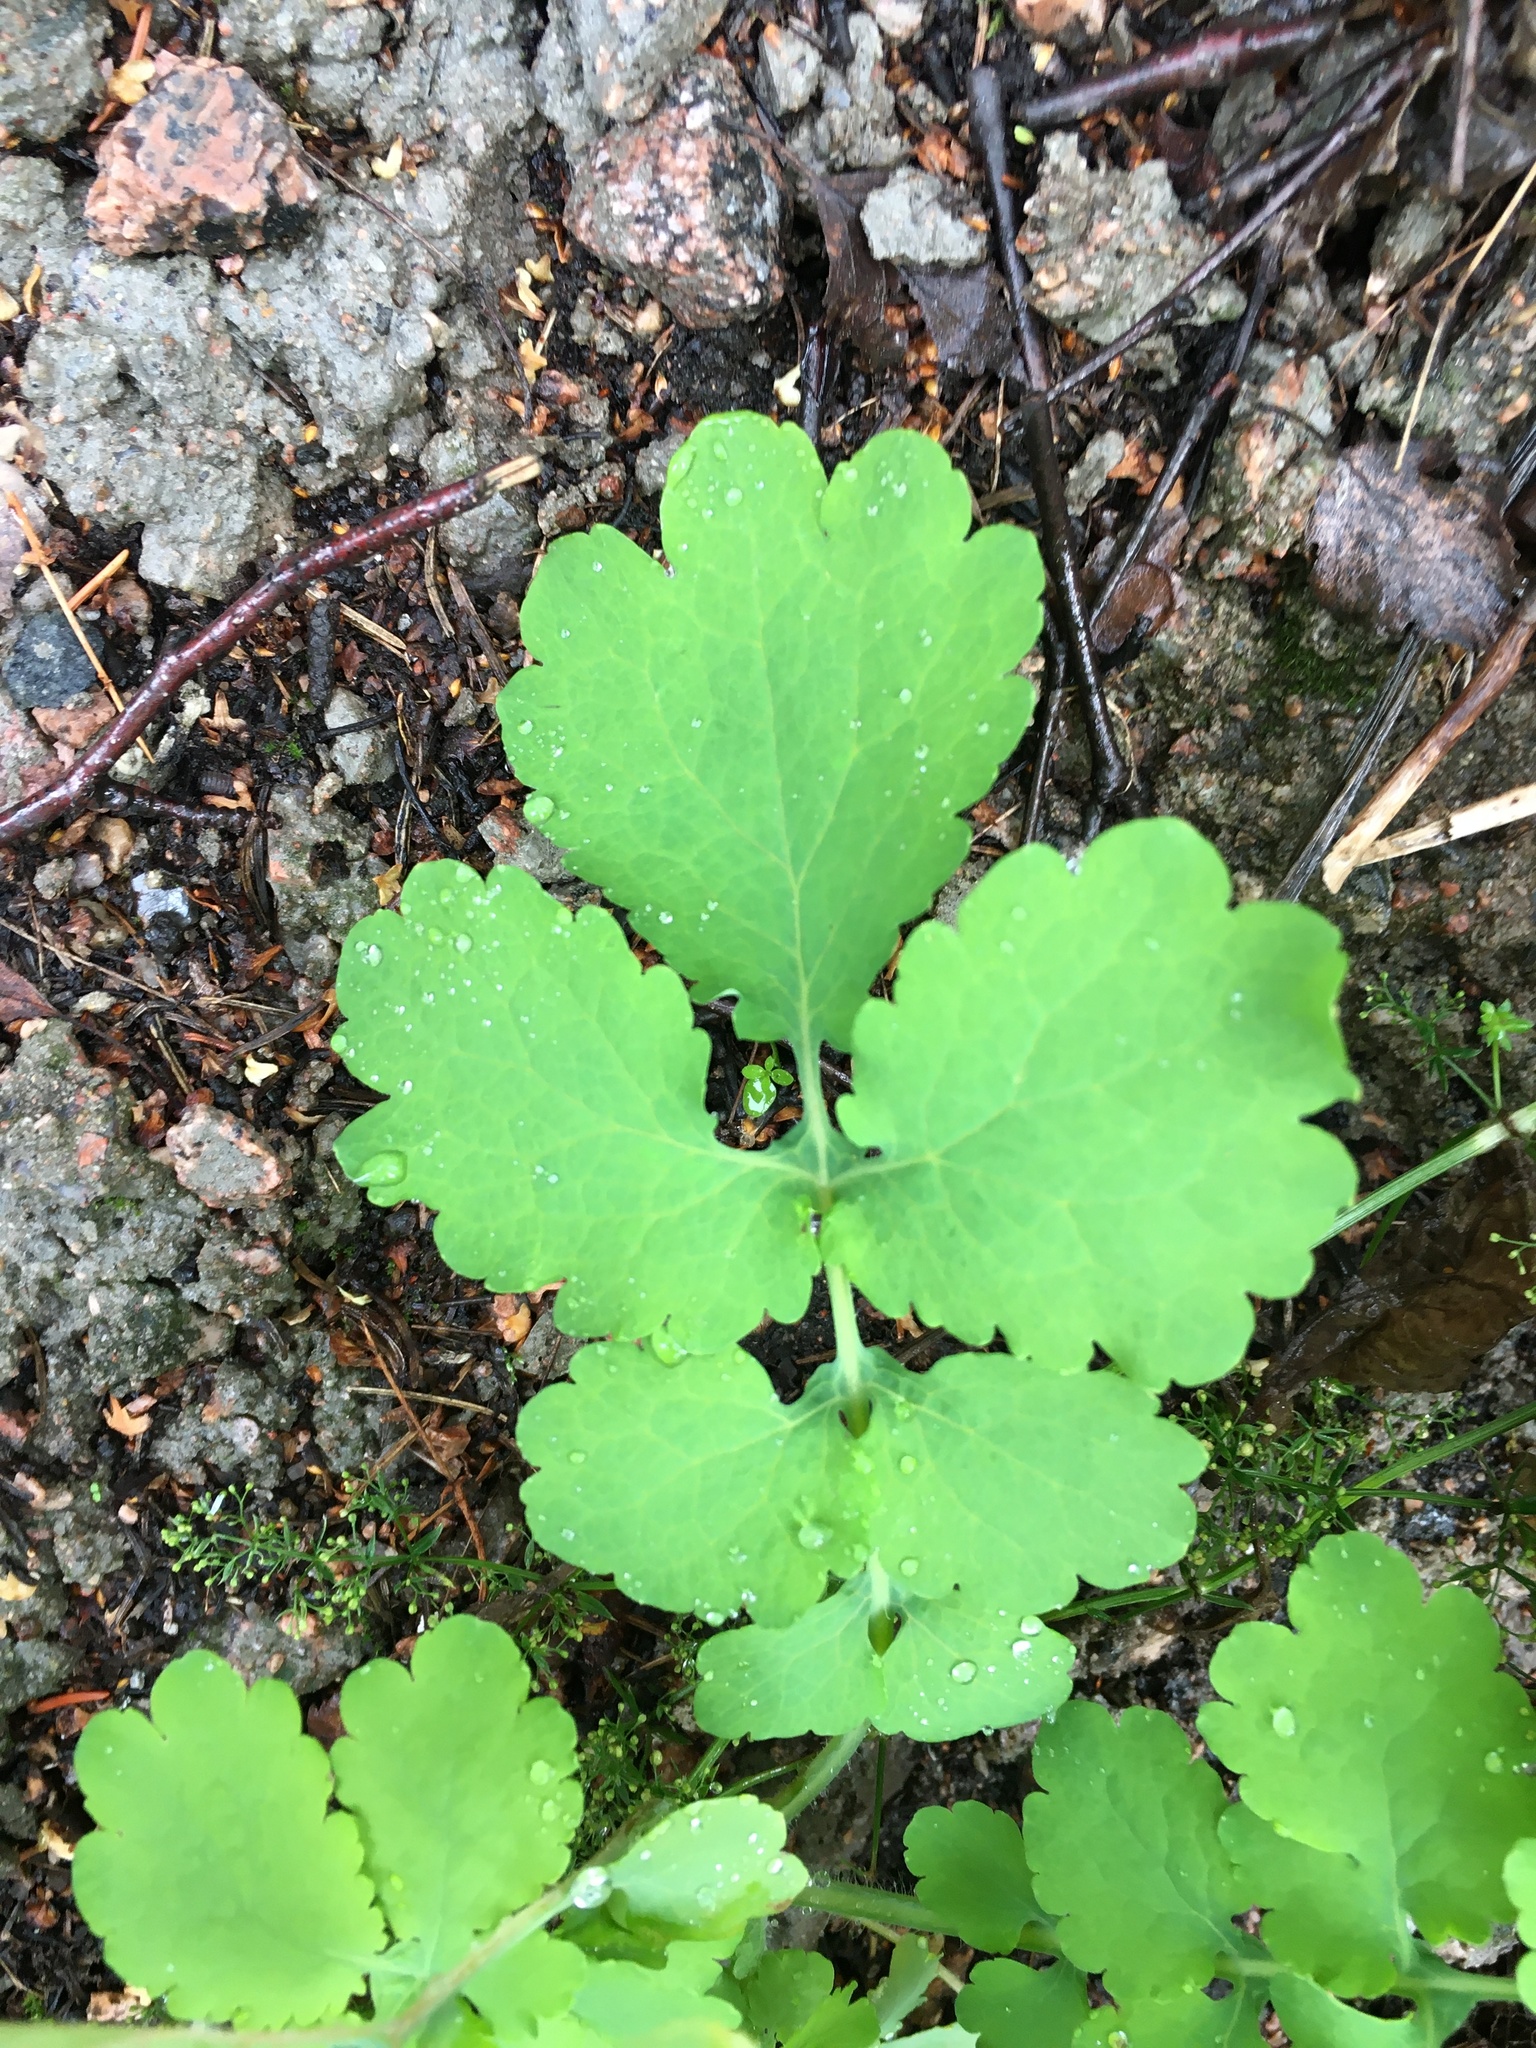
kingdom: Plantae
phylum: Tracheophyta
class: Magnoliopsida
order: Ranunculales
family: Papaveraceae
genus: Chelidonium
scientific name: Chelidonium majus
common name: Greater celandine
